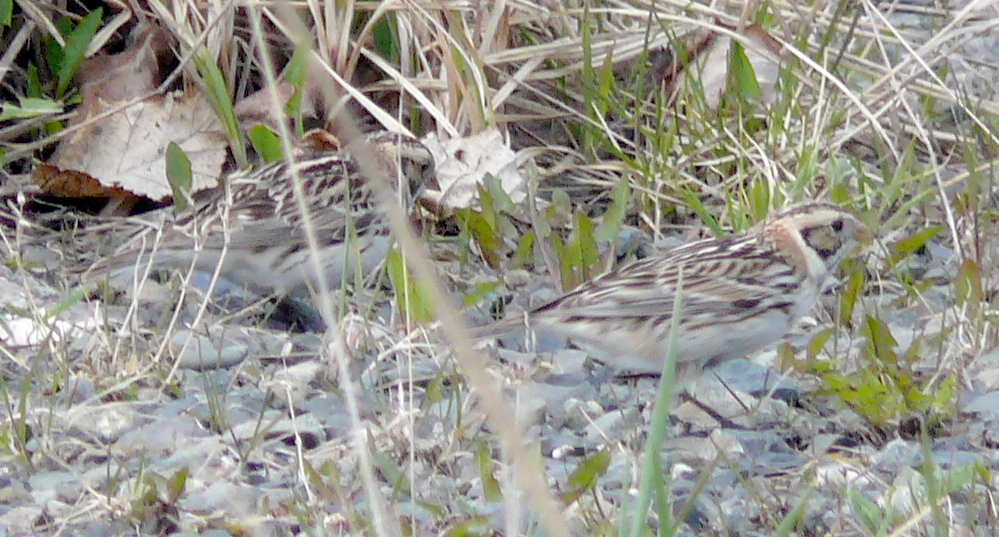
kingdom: Animalia
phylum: Chordata
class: Aves
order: Passeriformes
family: Calcariidae
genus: Calcarius
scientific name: Calcarius lapponicus
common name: Lapland longspur
